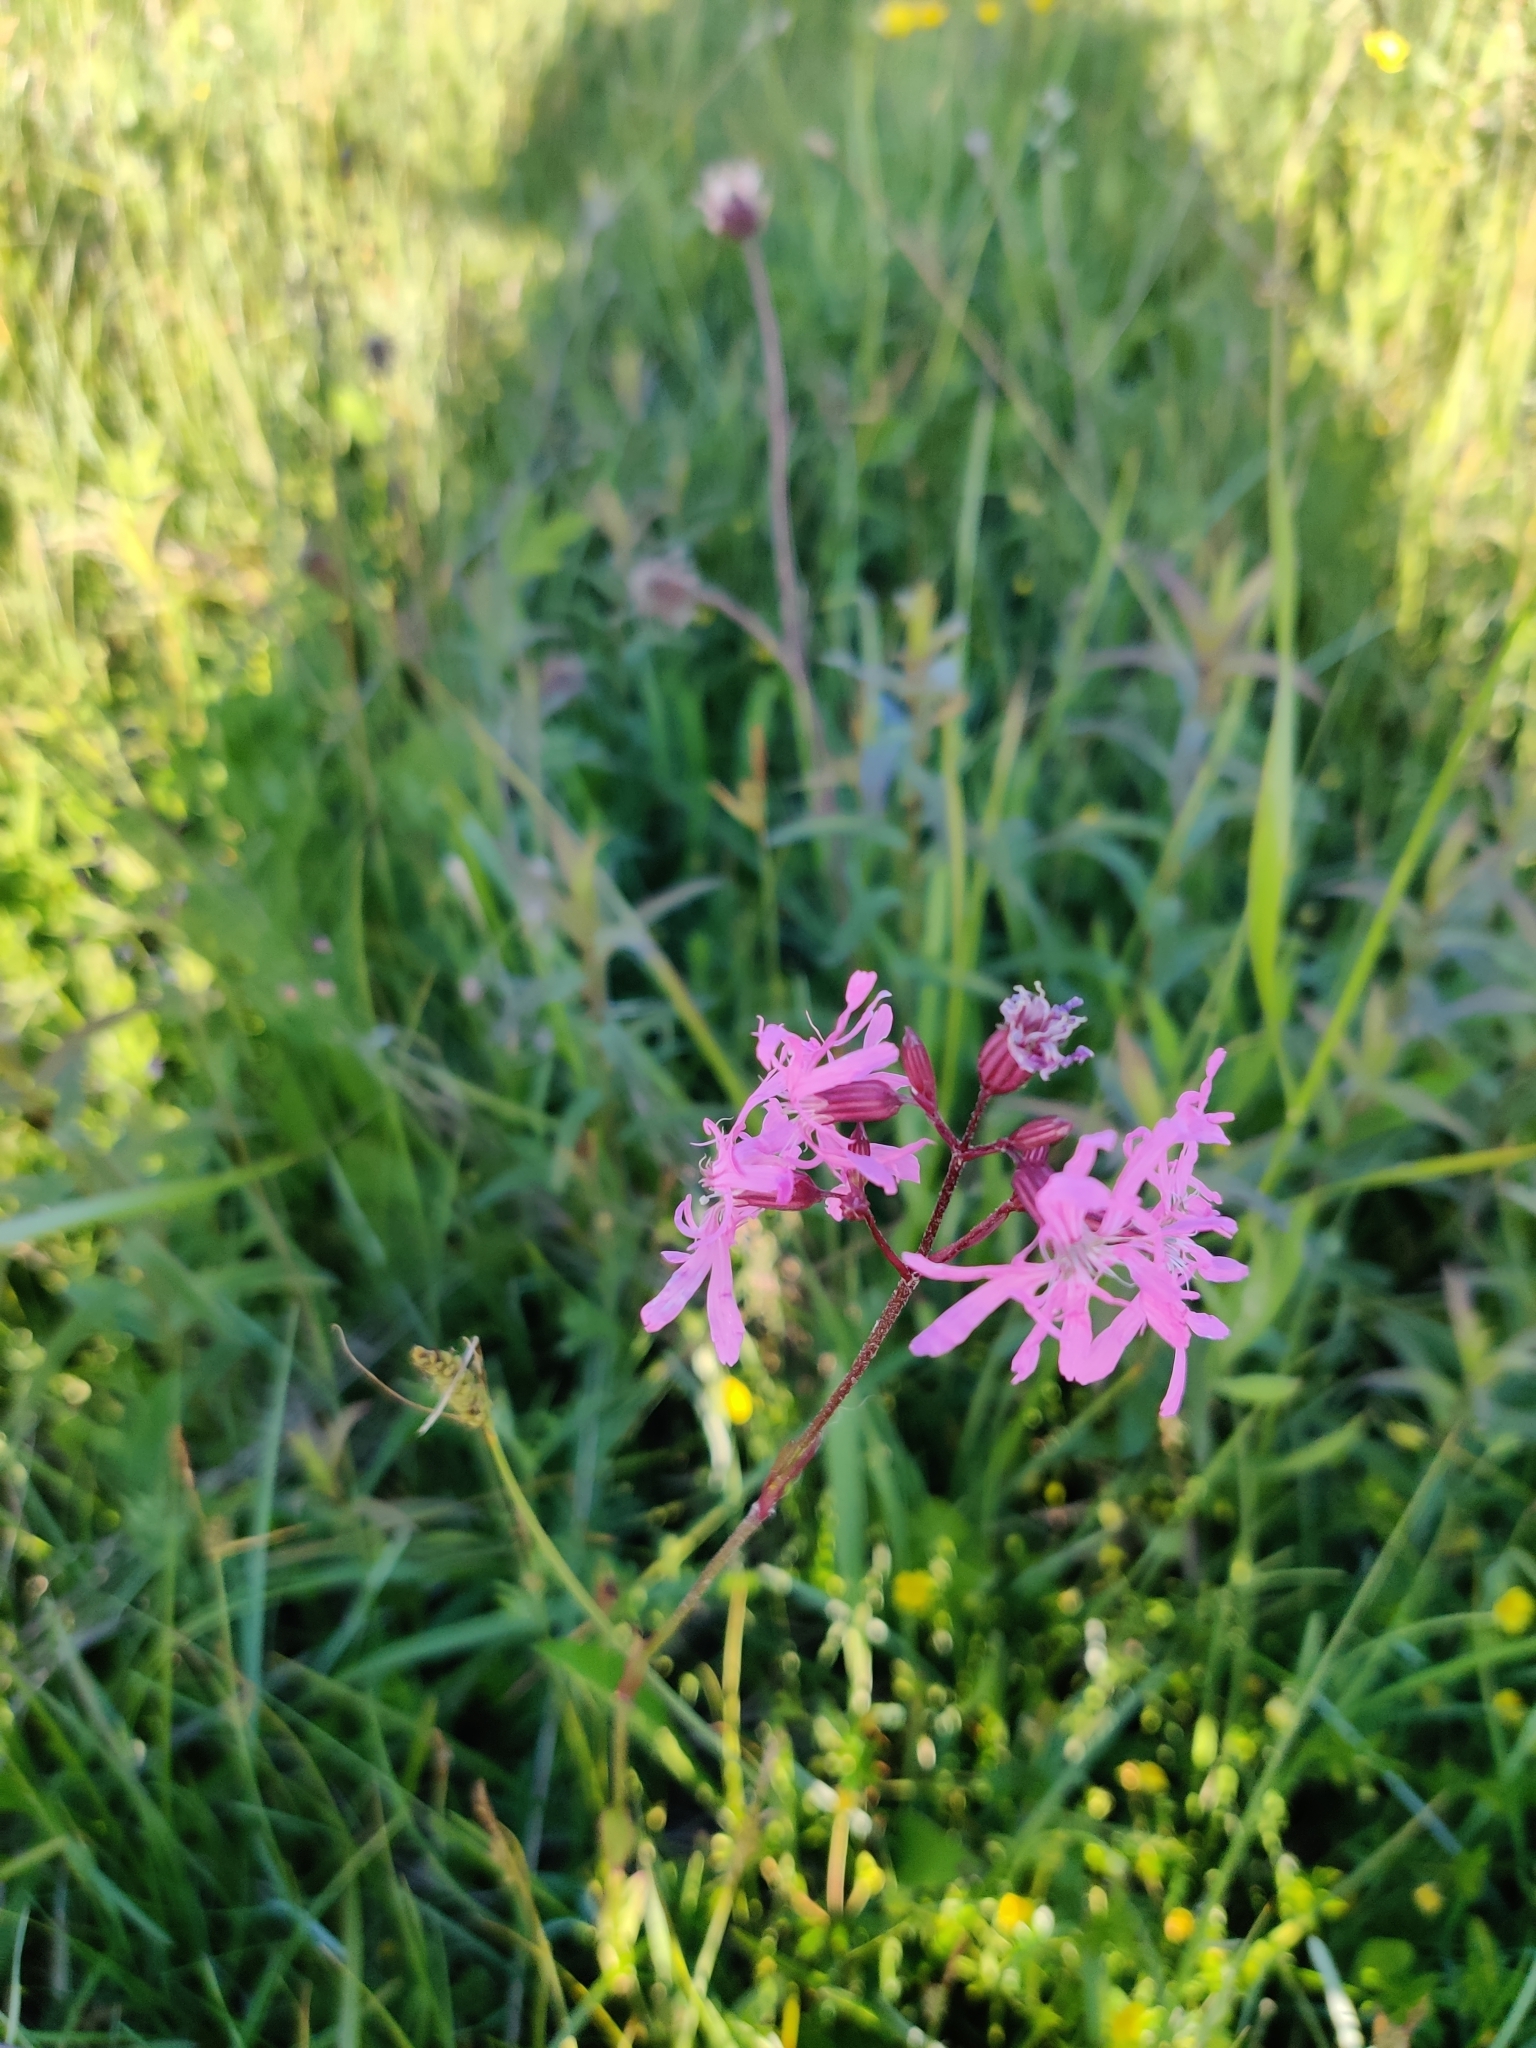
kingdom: Plantae
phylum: Tracheophyta
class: Magnoliopsida
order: Caryophyllales
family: Caryophyllaceae
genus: Silene
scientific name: Silene flos-cuculi
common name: Ragged-robin
